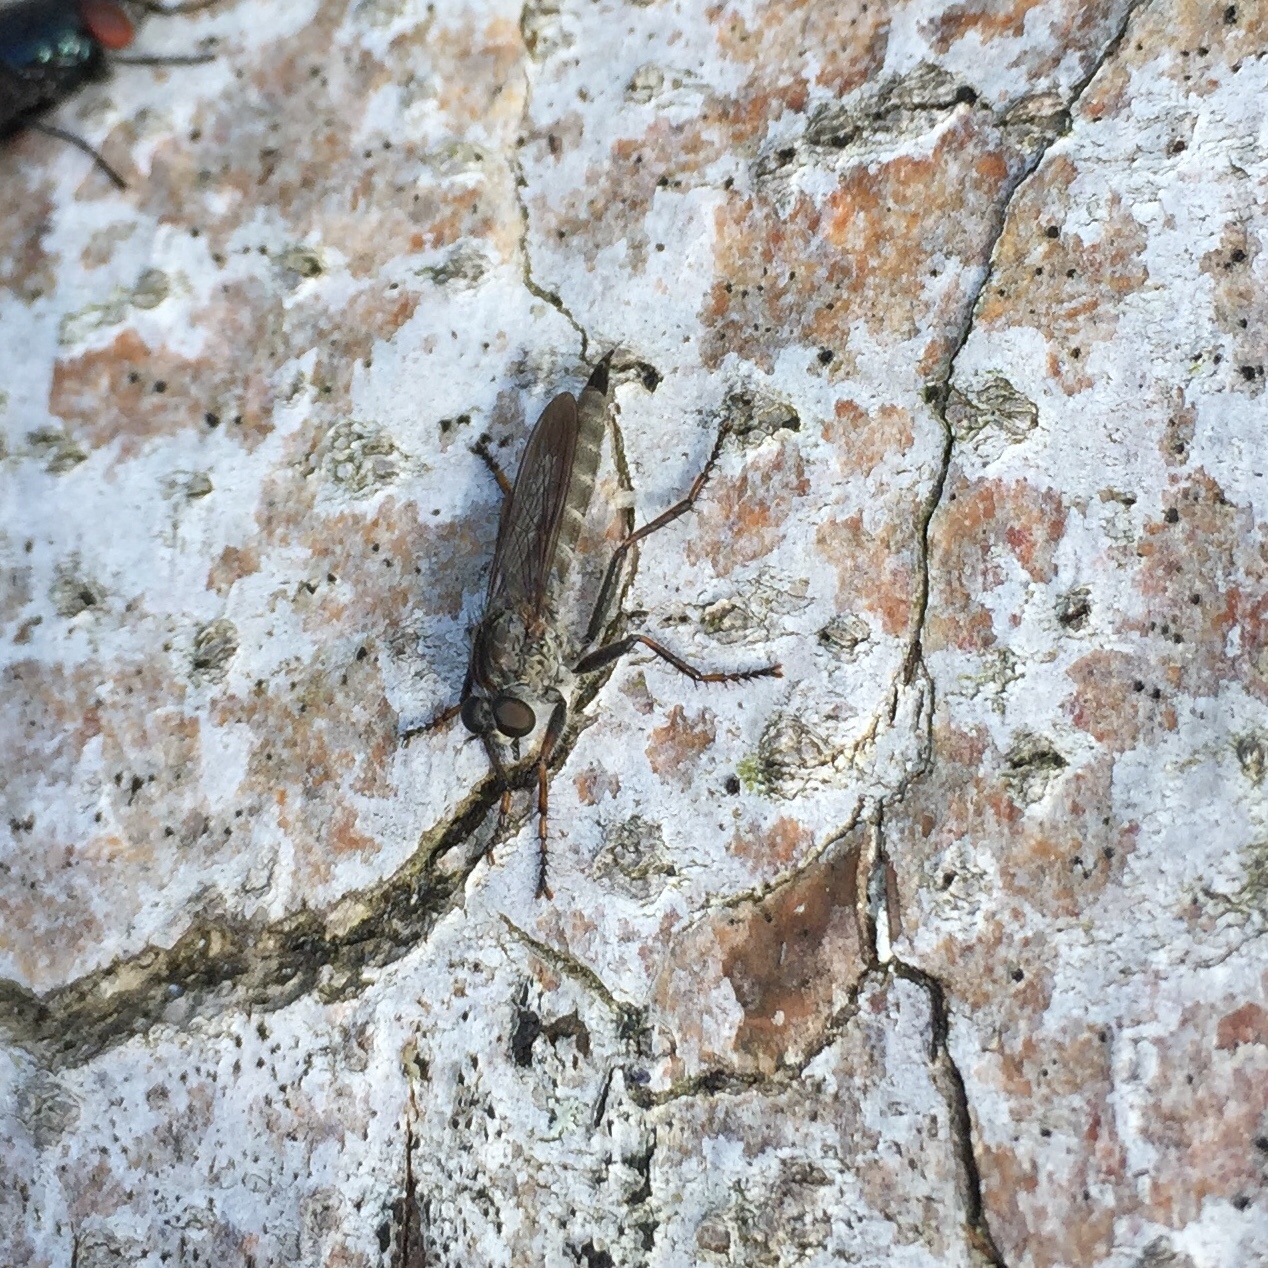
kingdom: Animalia
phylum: Arthropoda
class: Insecta
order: Diptera
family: Asilidae
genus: Machimus
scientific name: Machimus atricapillus
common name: Kite-tailed robberfly
